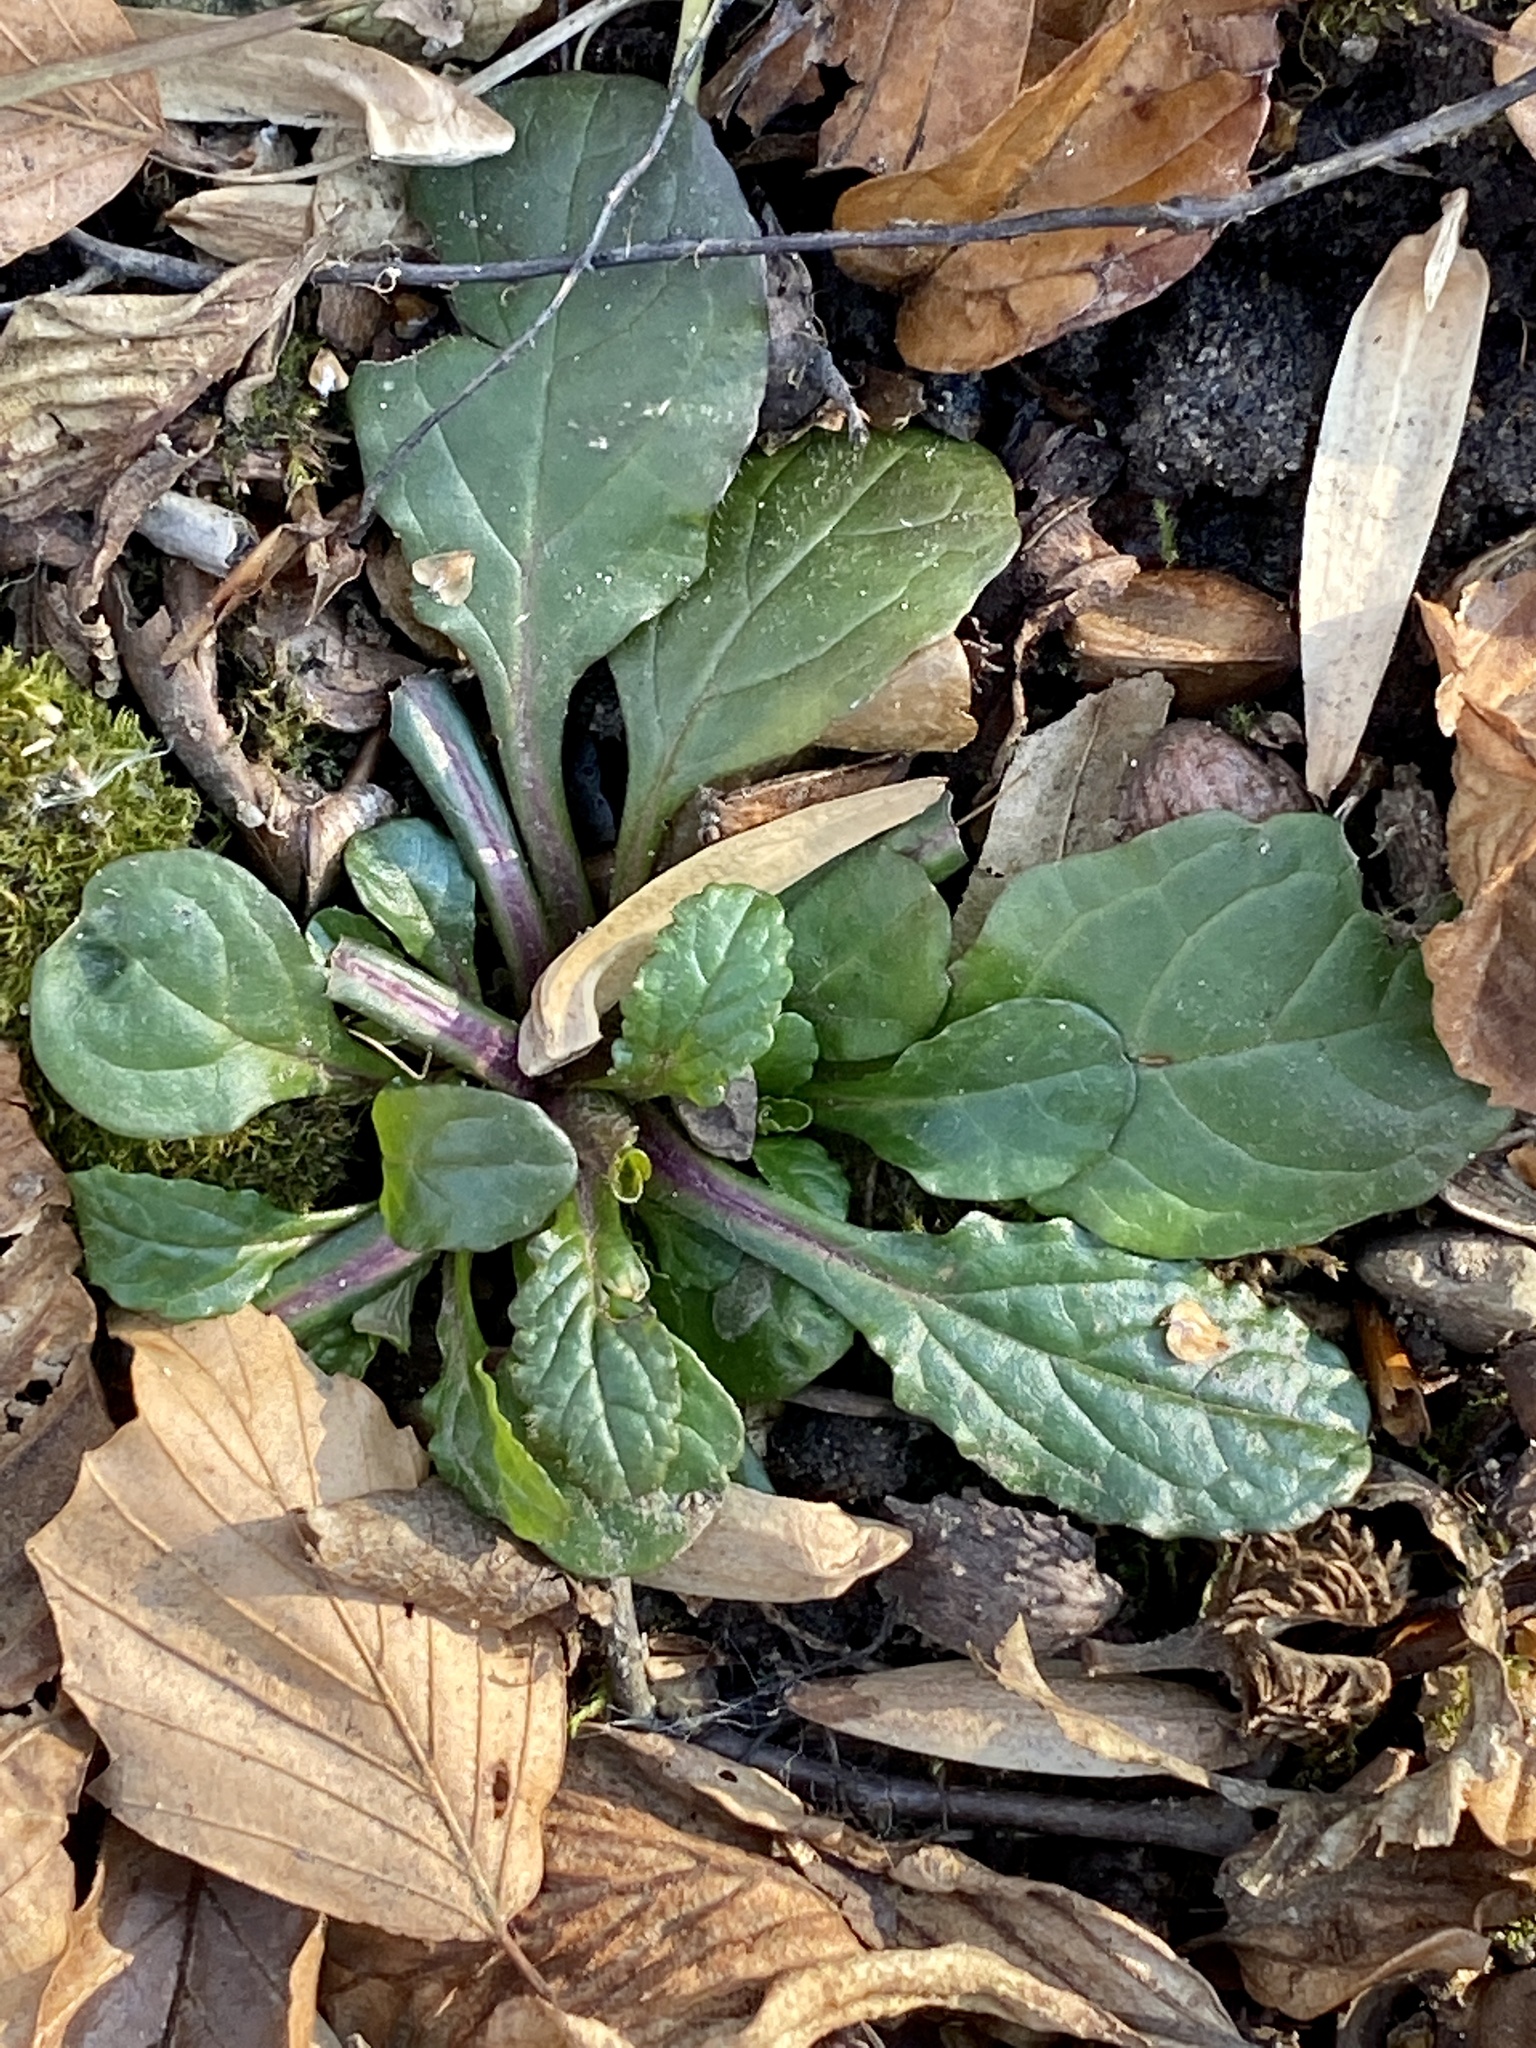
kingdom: Plantae
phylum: Tracheophyta
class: Magnoliopsida
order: Lamiales
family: Lamiaceae
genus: Ajuga
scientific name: Ajuga reptans
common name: Bugle
